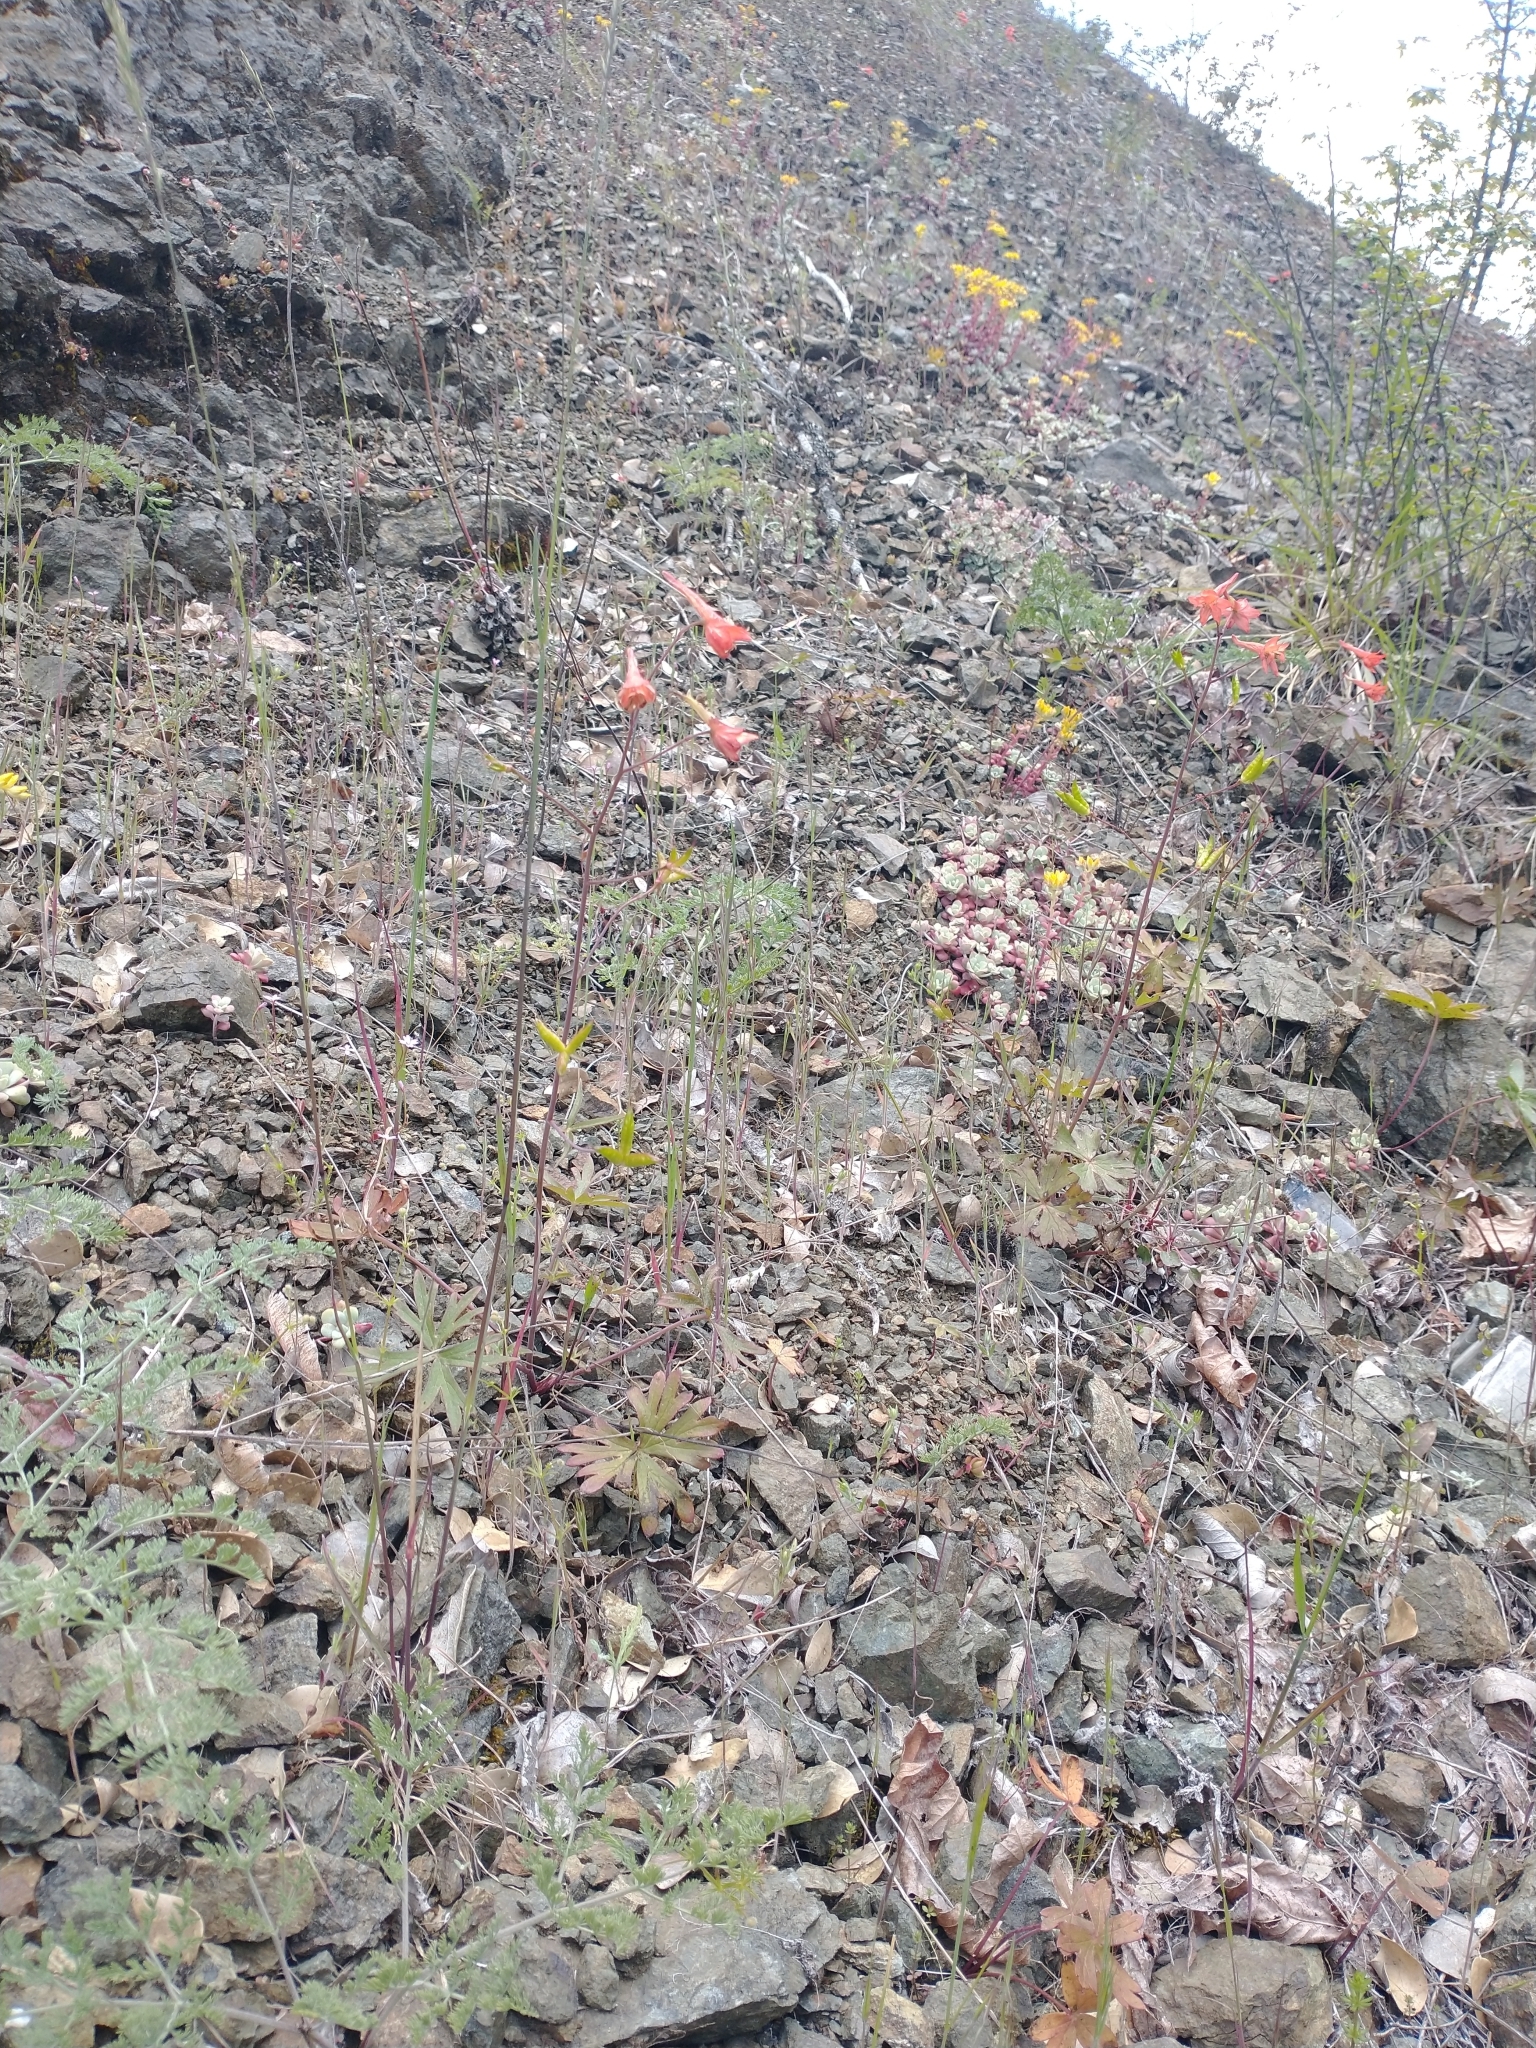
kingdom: Plantae
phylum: Tracheophyta
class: Magnoliopsida
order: Ranunculales
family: Ranunculaceae
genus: Delphinium
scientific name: Delphinium nudicaule
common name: Red larkspur
